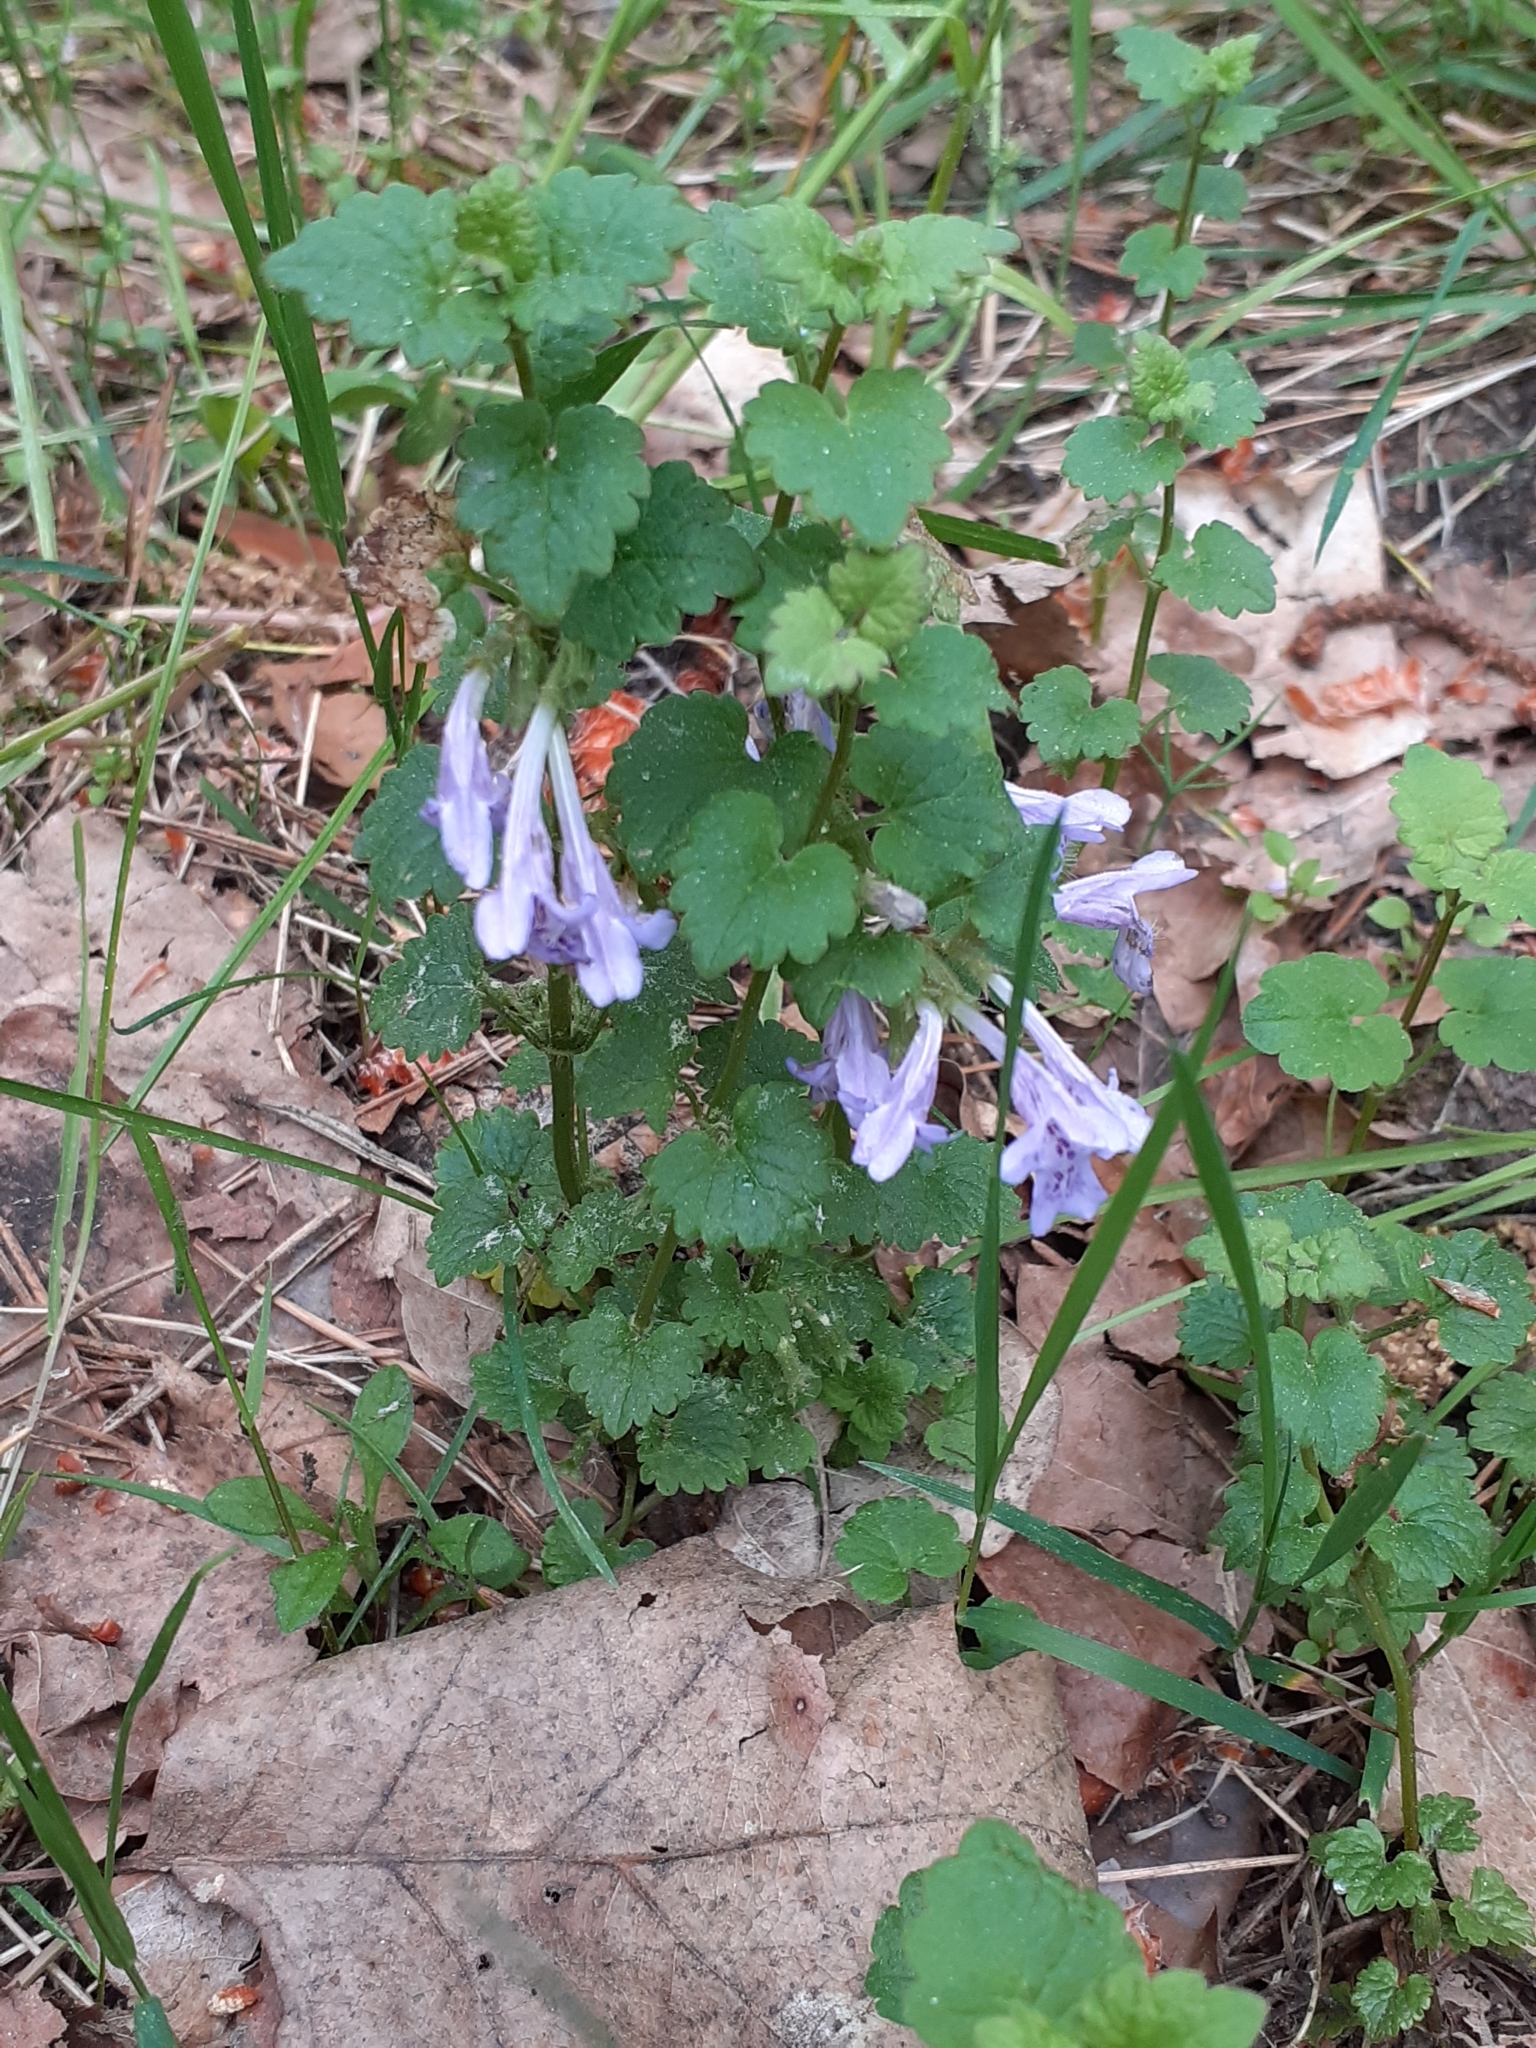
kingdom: Plantae
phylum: Tracheophyta
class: Magnoliopsida
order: Lamiales
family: Lamiaceae
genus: Glechoma
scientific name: Glechoma hederacea
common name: Ground ivy
